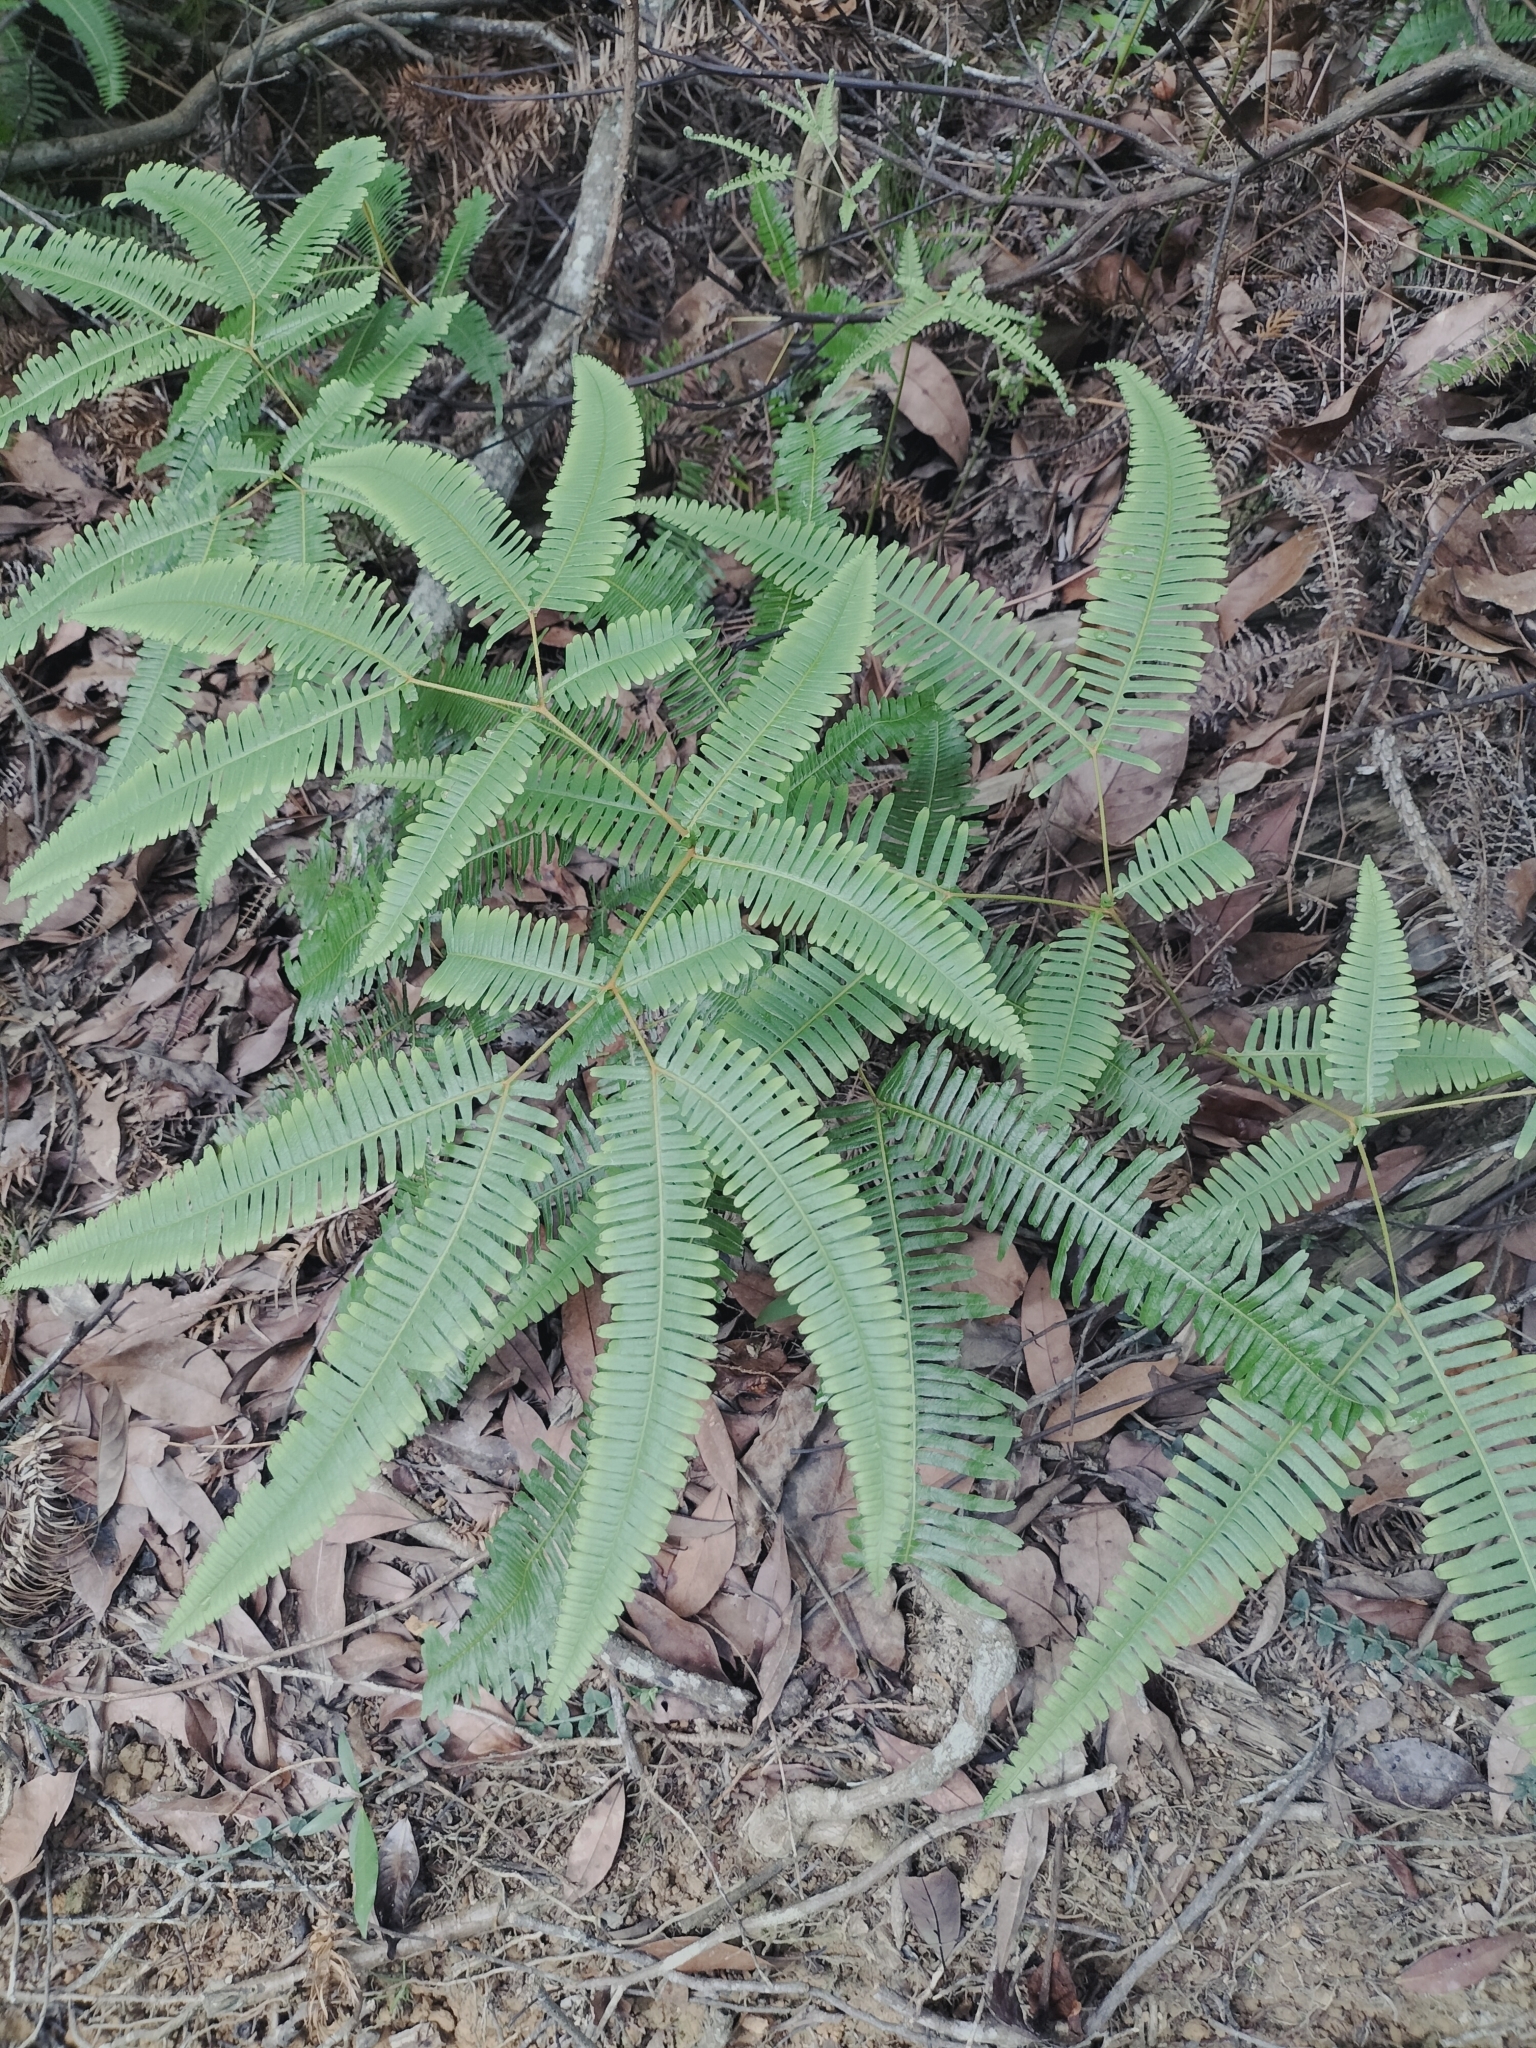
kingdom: Plantae
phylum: Tracheophyta
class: Polypodiopsida
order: Gleicheniales
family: Gleicheniaceae
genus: Dicranopteris
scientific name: Dicranopteris linearis
